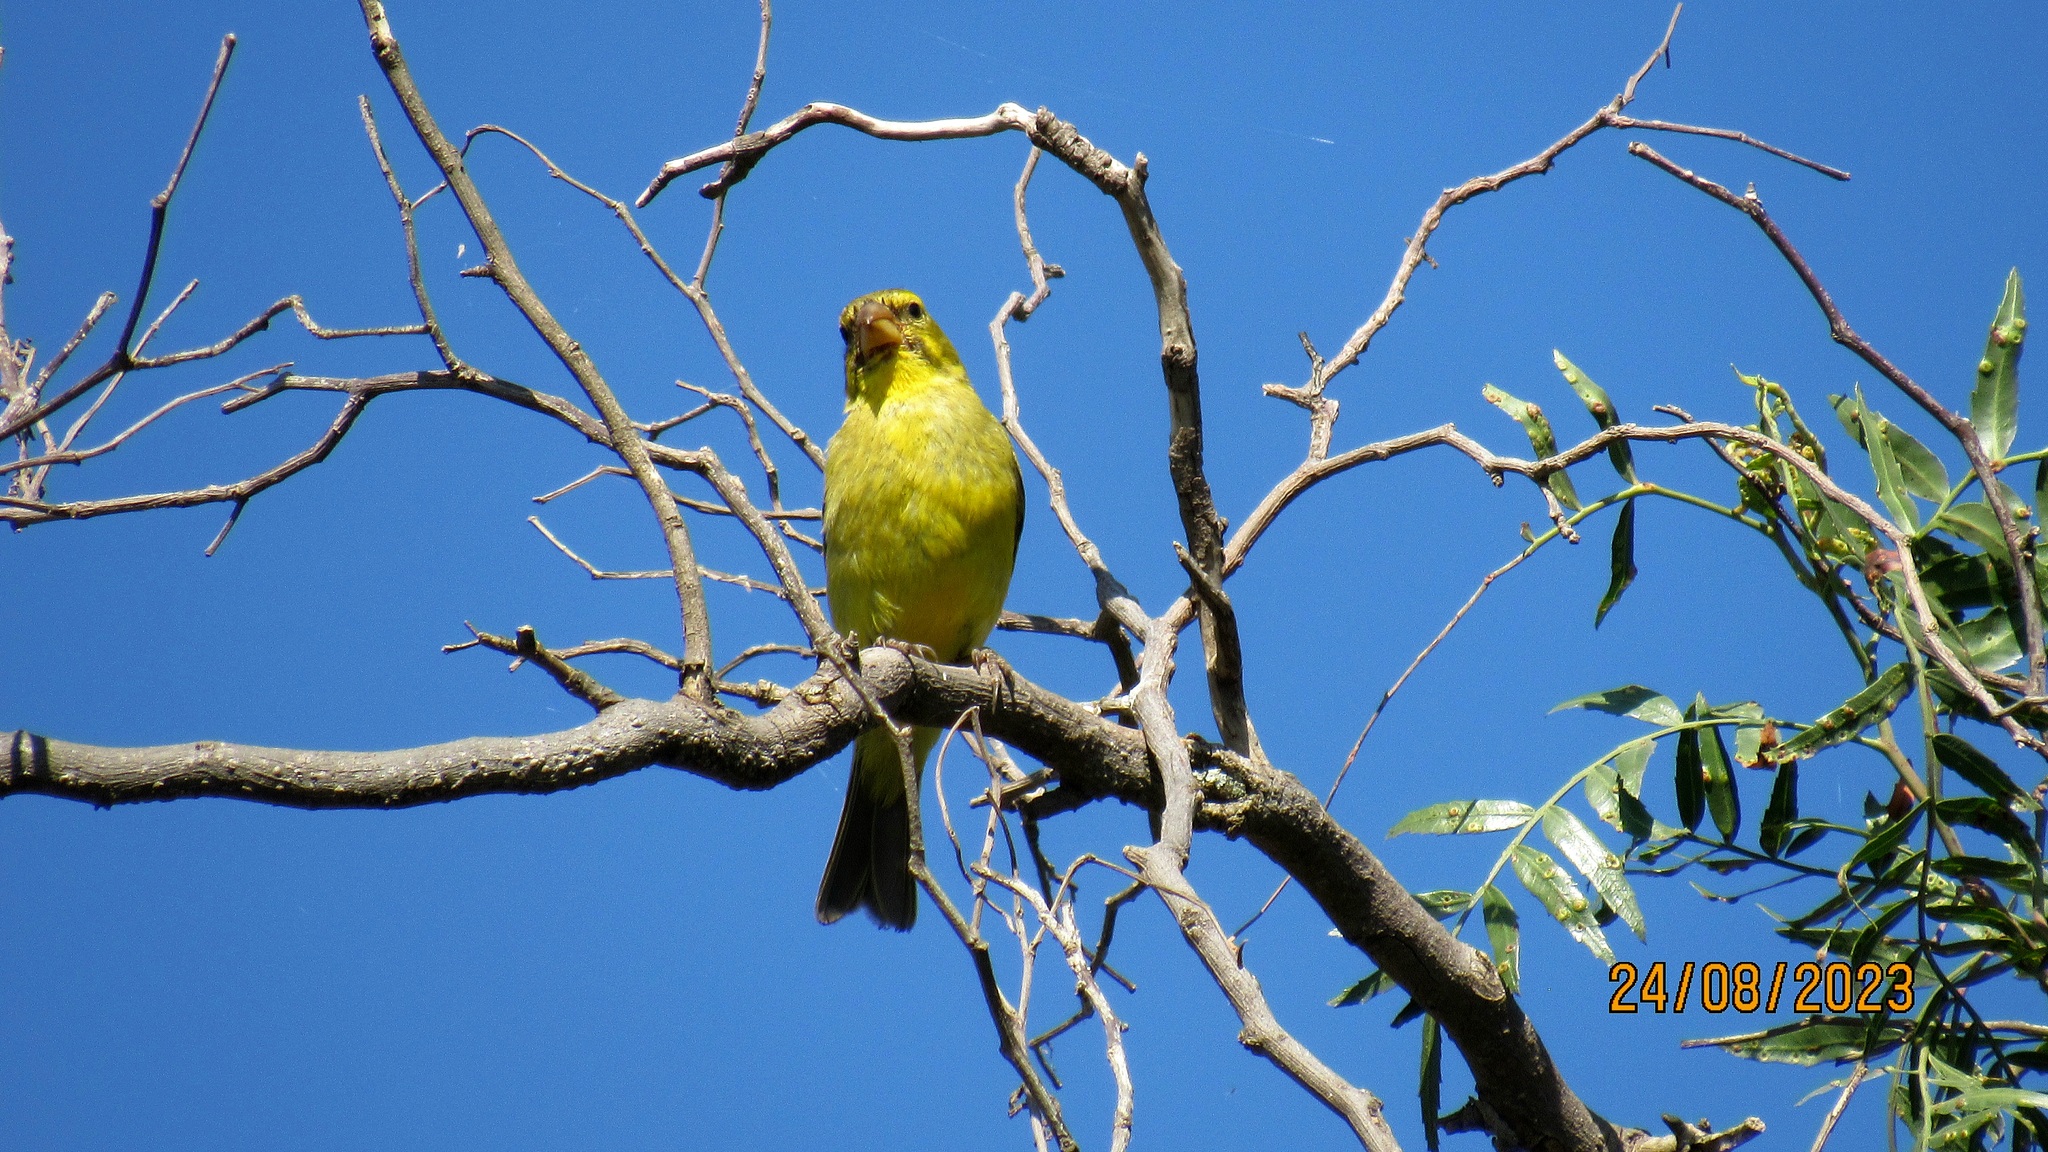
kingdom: Animalia
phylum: Chordata
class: Aves
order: Passeriformes
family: Fringillidae
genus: Crithagra
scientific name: Crithagra sulphurata
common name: Brimstone canary
